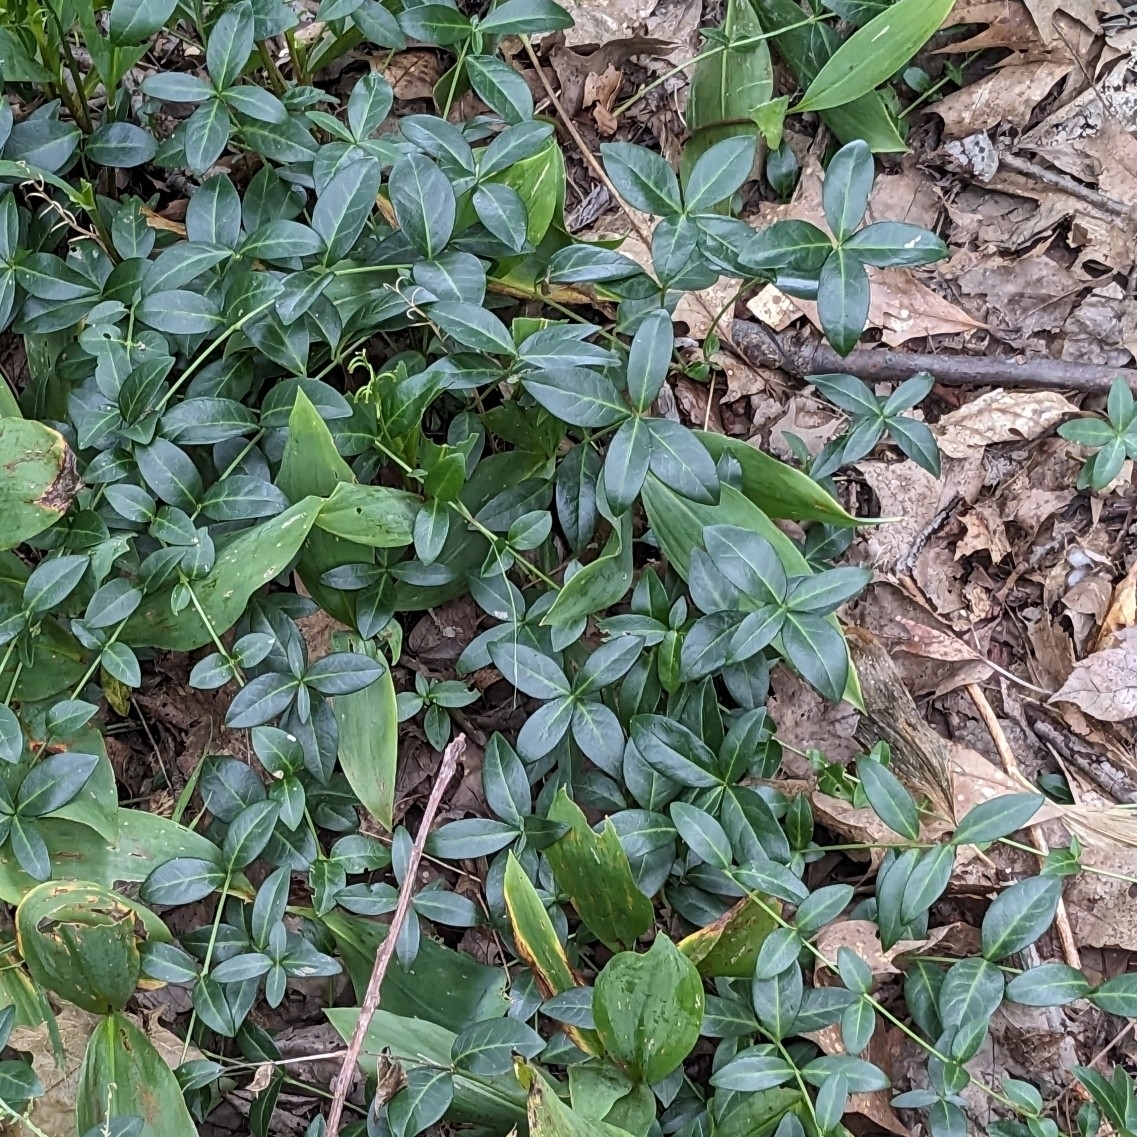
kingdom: Plantae
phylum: Tracheophyta
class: Magnoliopsida
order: Gentianales
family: Apocynaceae
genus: Vinca
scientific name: Vinca minor
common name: Lesser periwinkle
